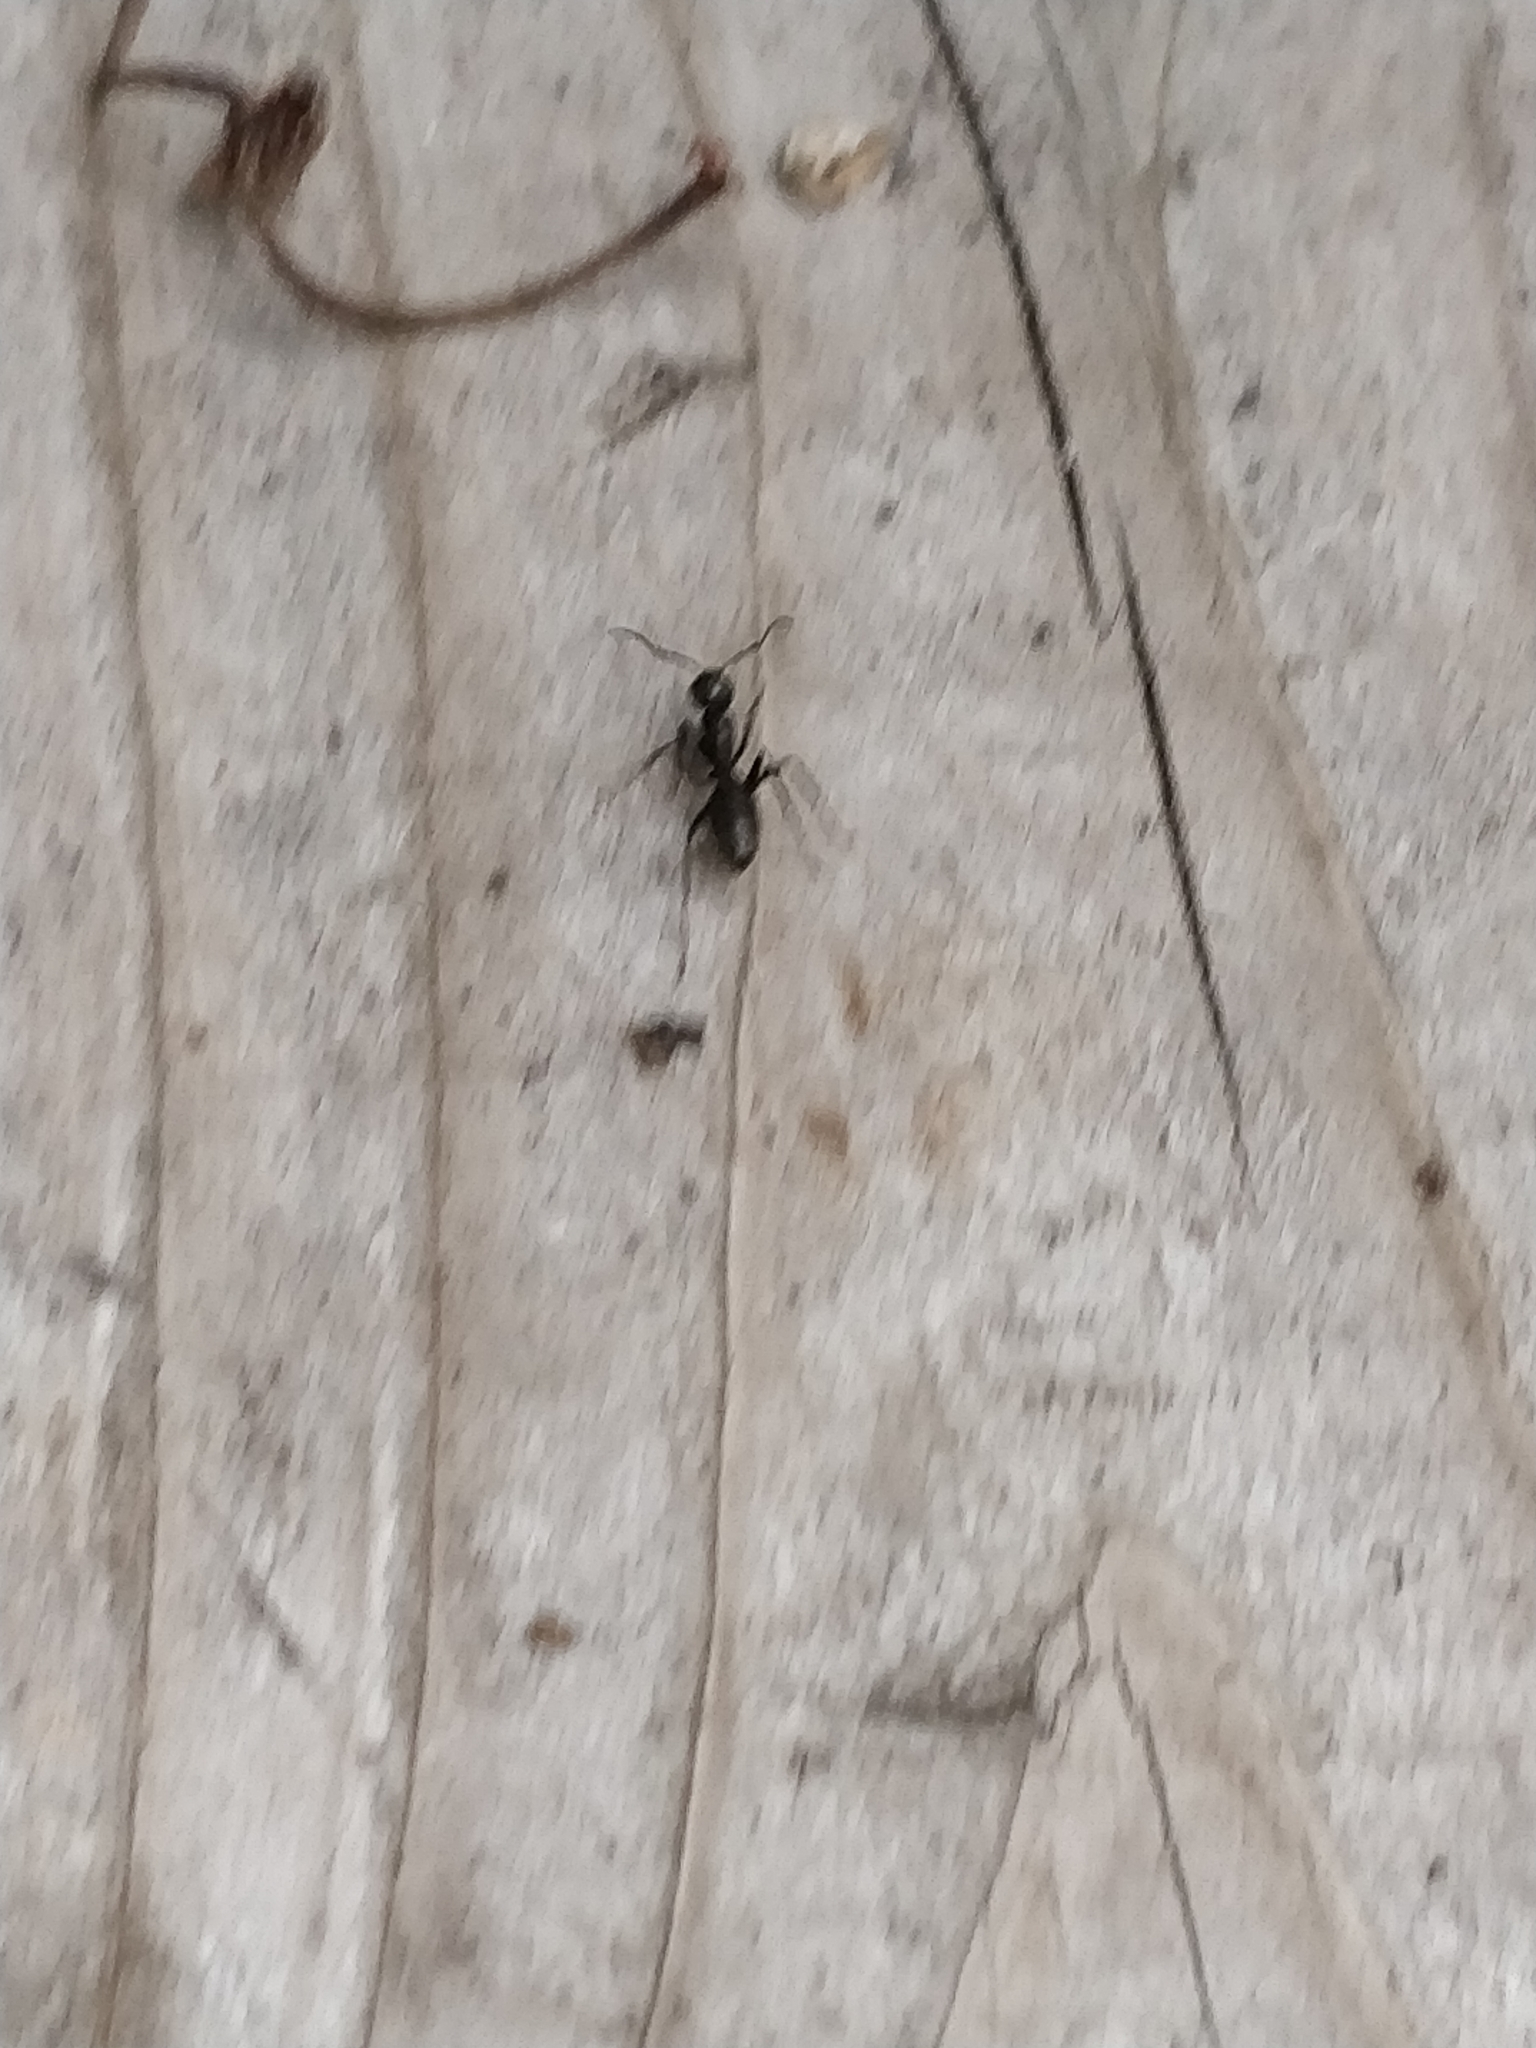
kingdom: Animalia
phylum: Arthropoda
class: Insecta
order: Hymenoptera
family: Formicidae
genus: Camponotus
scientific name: Camponotus pennsylvanicus
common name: Black carpenter ant
